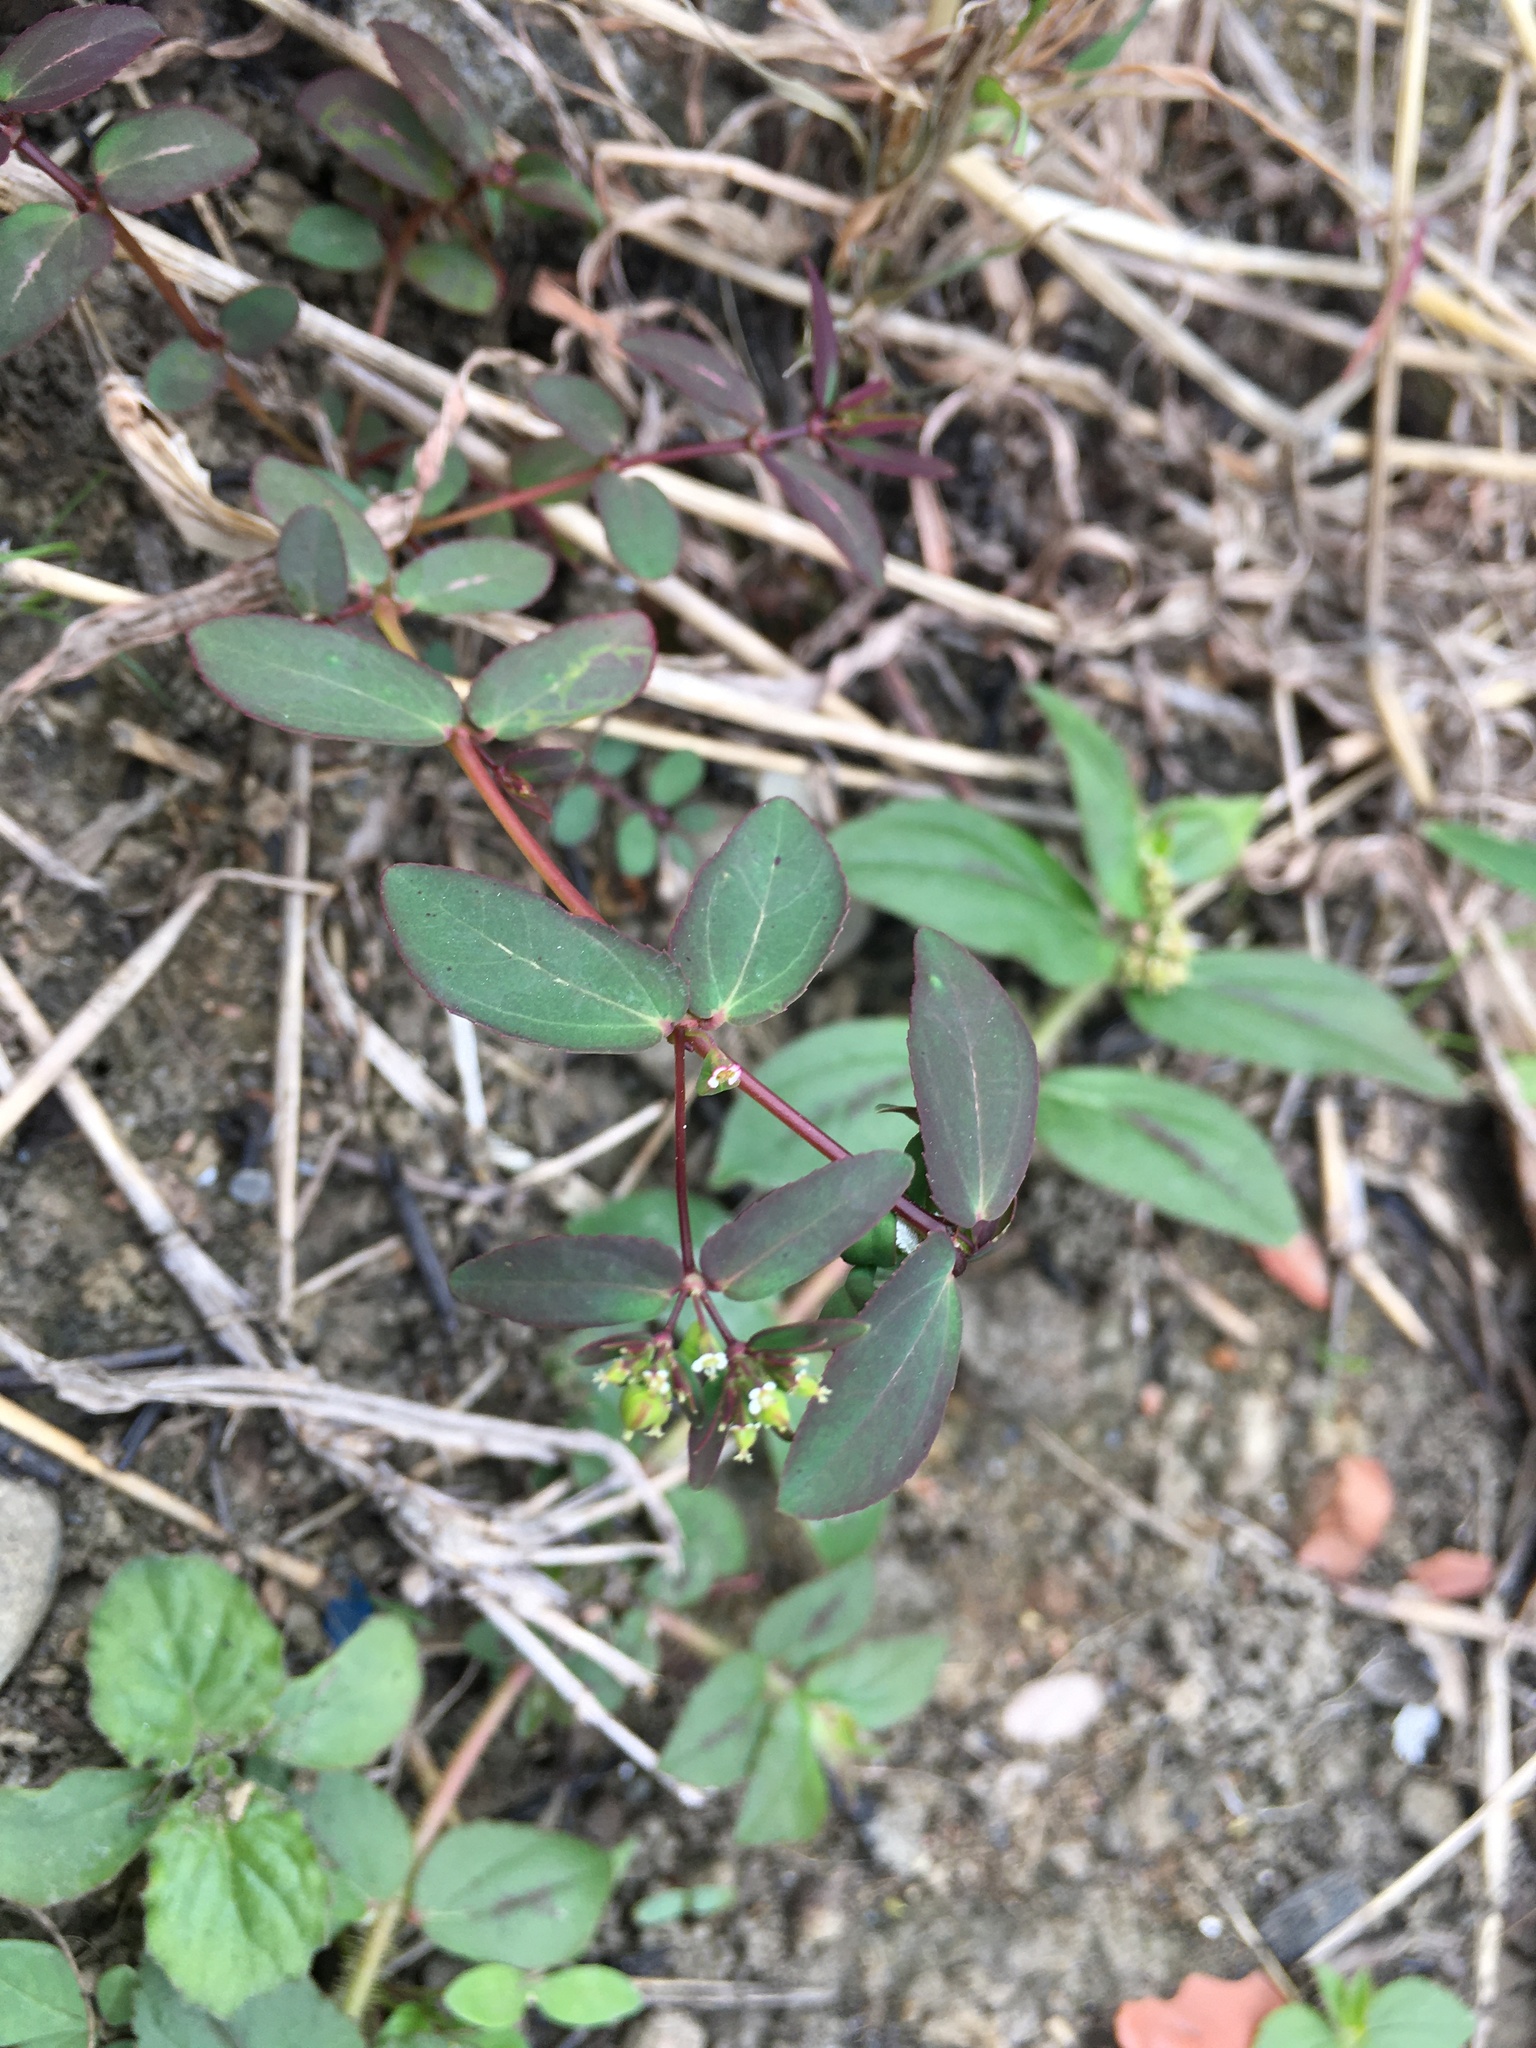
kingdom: Plantae
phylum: Tracheophyta
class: Magnoliopsida
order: Malpighiales
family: Euphorbiaceae
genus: Euphorbia
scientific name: Euphorbia hyssopifolia
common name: Hyssopleaf sandmat
